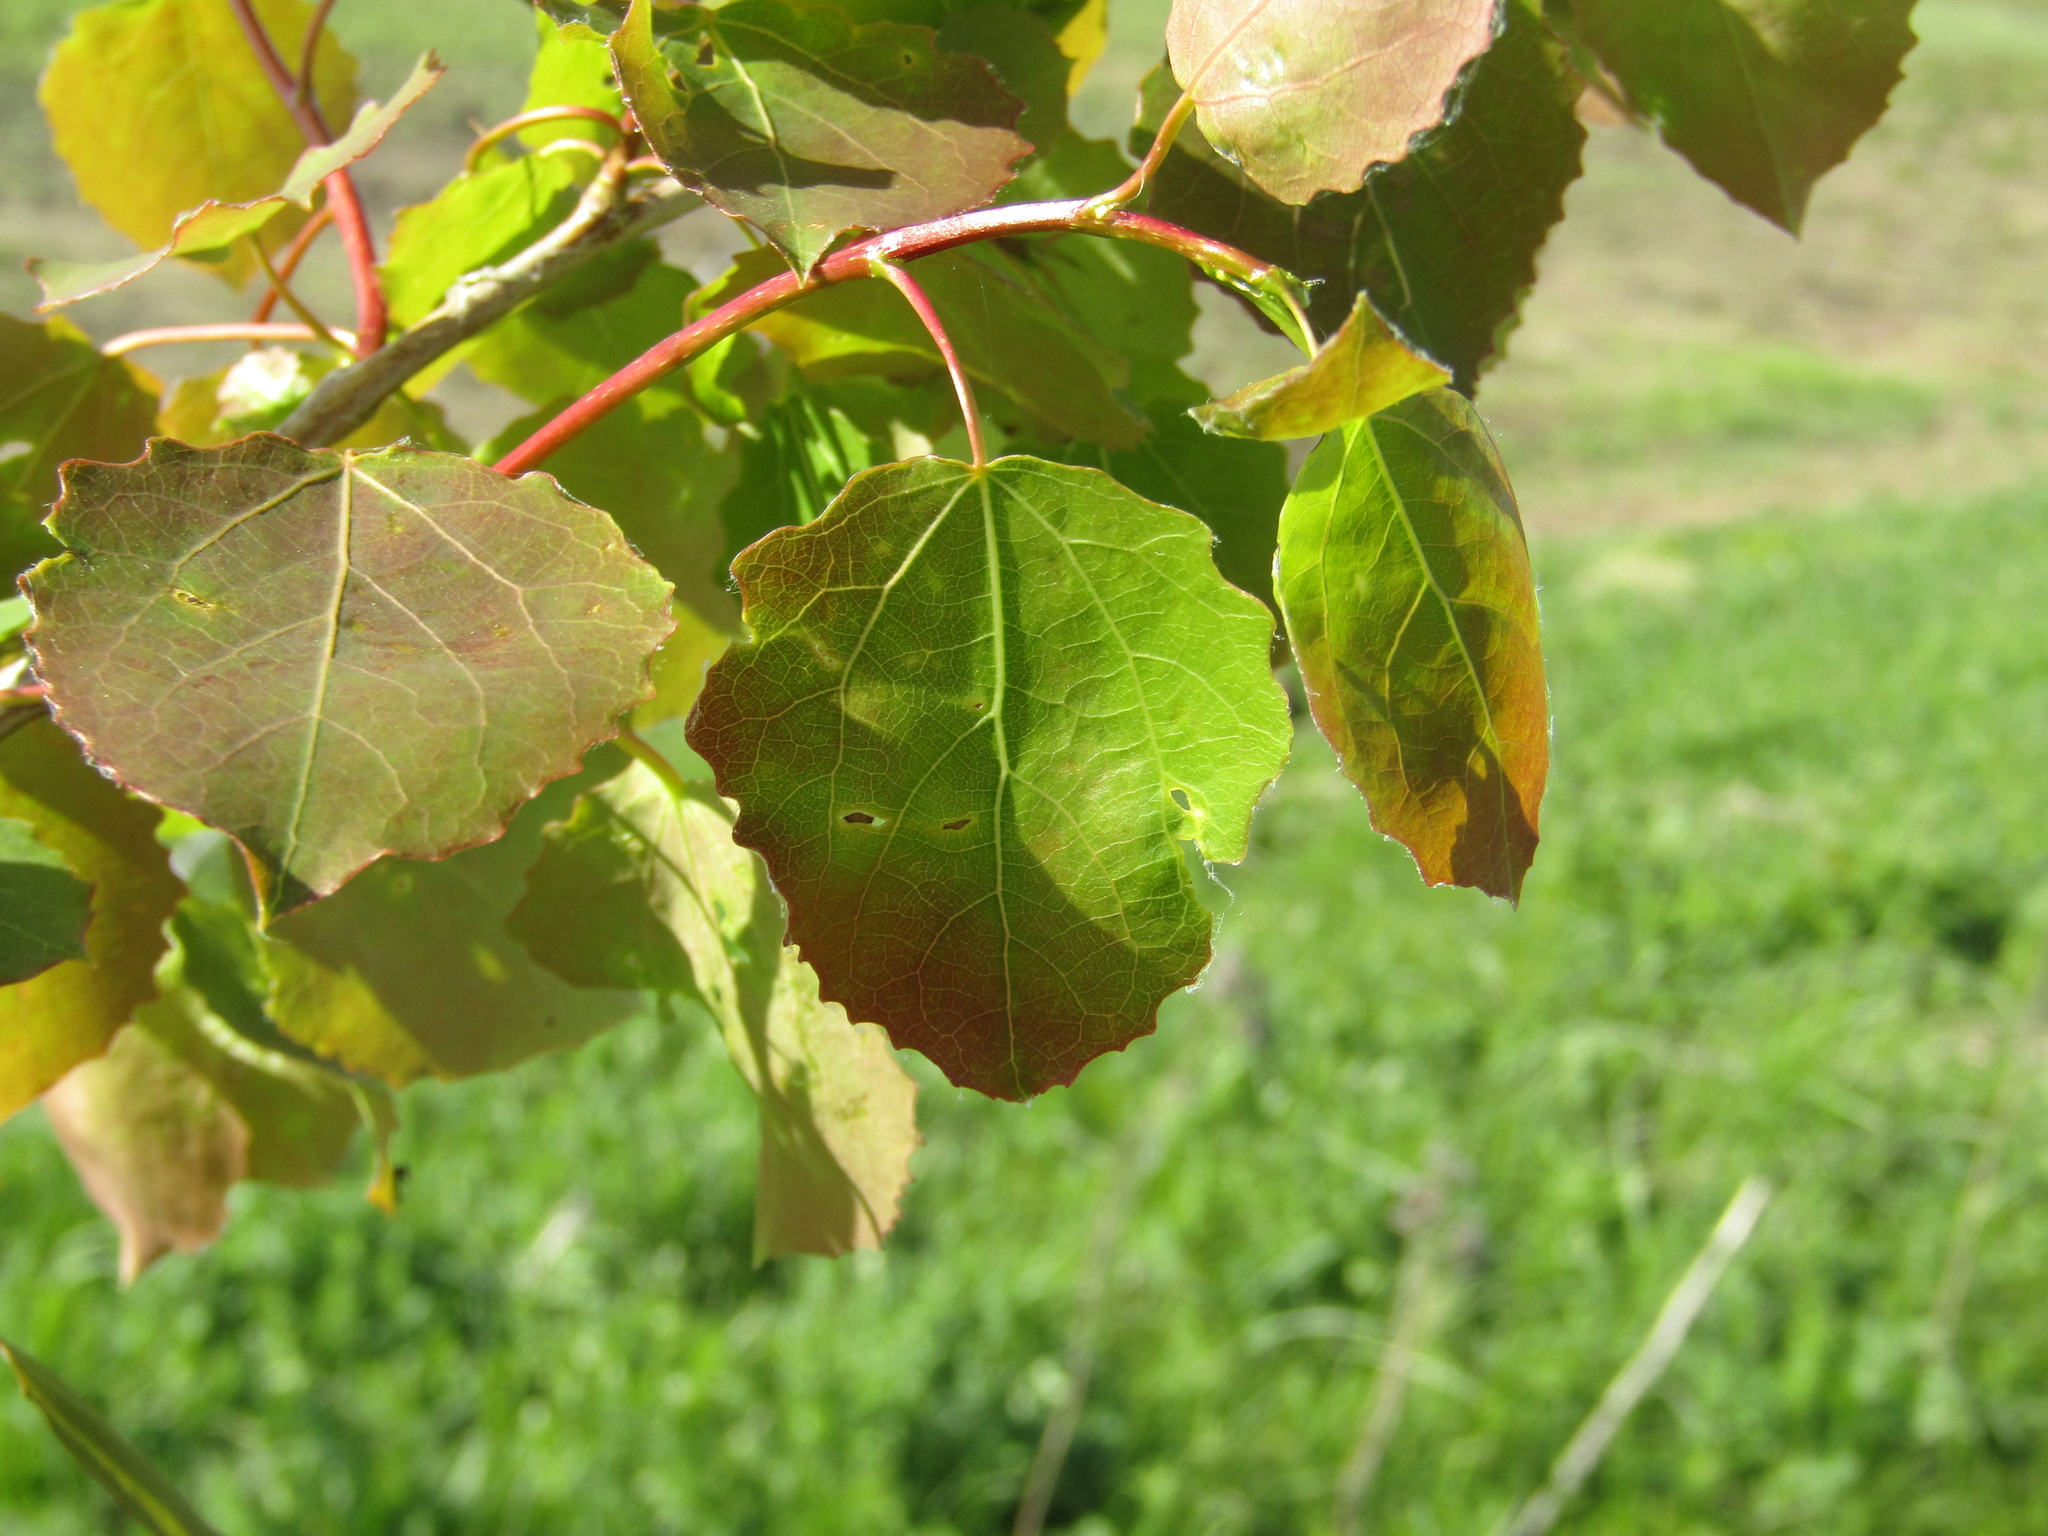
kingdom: Plantae
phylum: Tracheophyta
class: Magnoliopsida
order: Malpighiales
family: Salicaceae
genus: Populus
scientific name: Populus tremula
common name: European aspen
